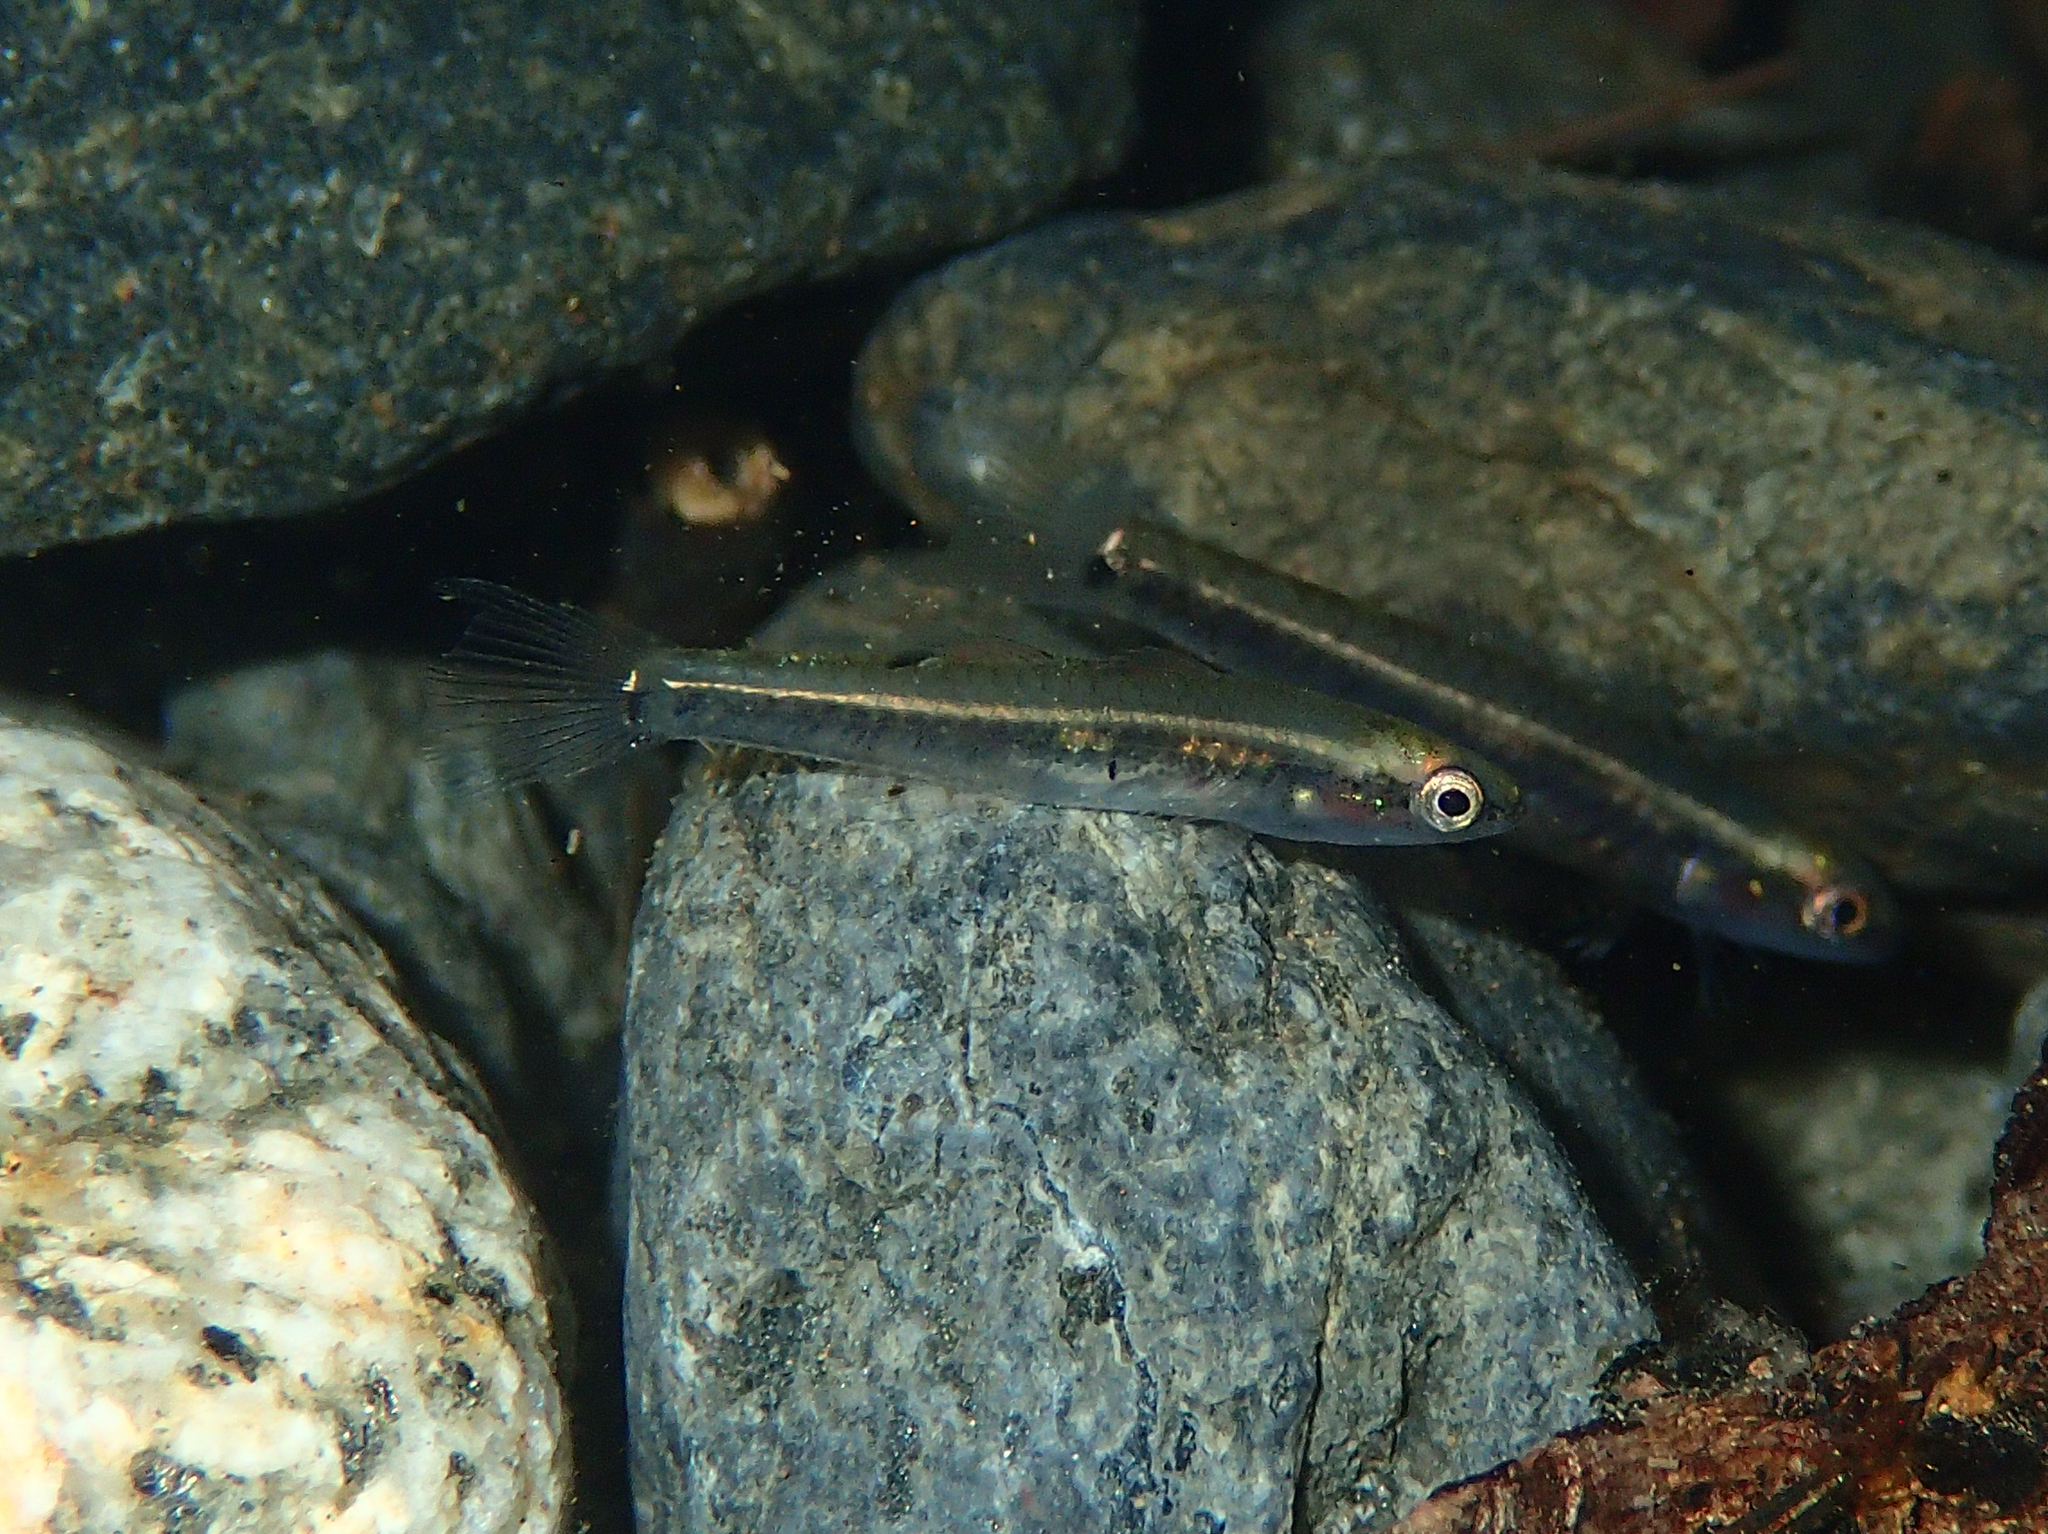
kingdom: Animalia
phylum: Chordata
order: Perciformes
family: Eleotridae
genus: Hypseleotris
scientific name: Hypseleotris compressa
